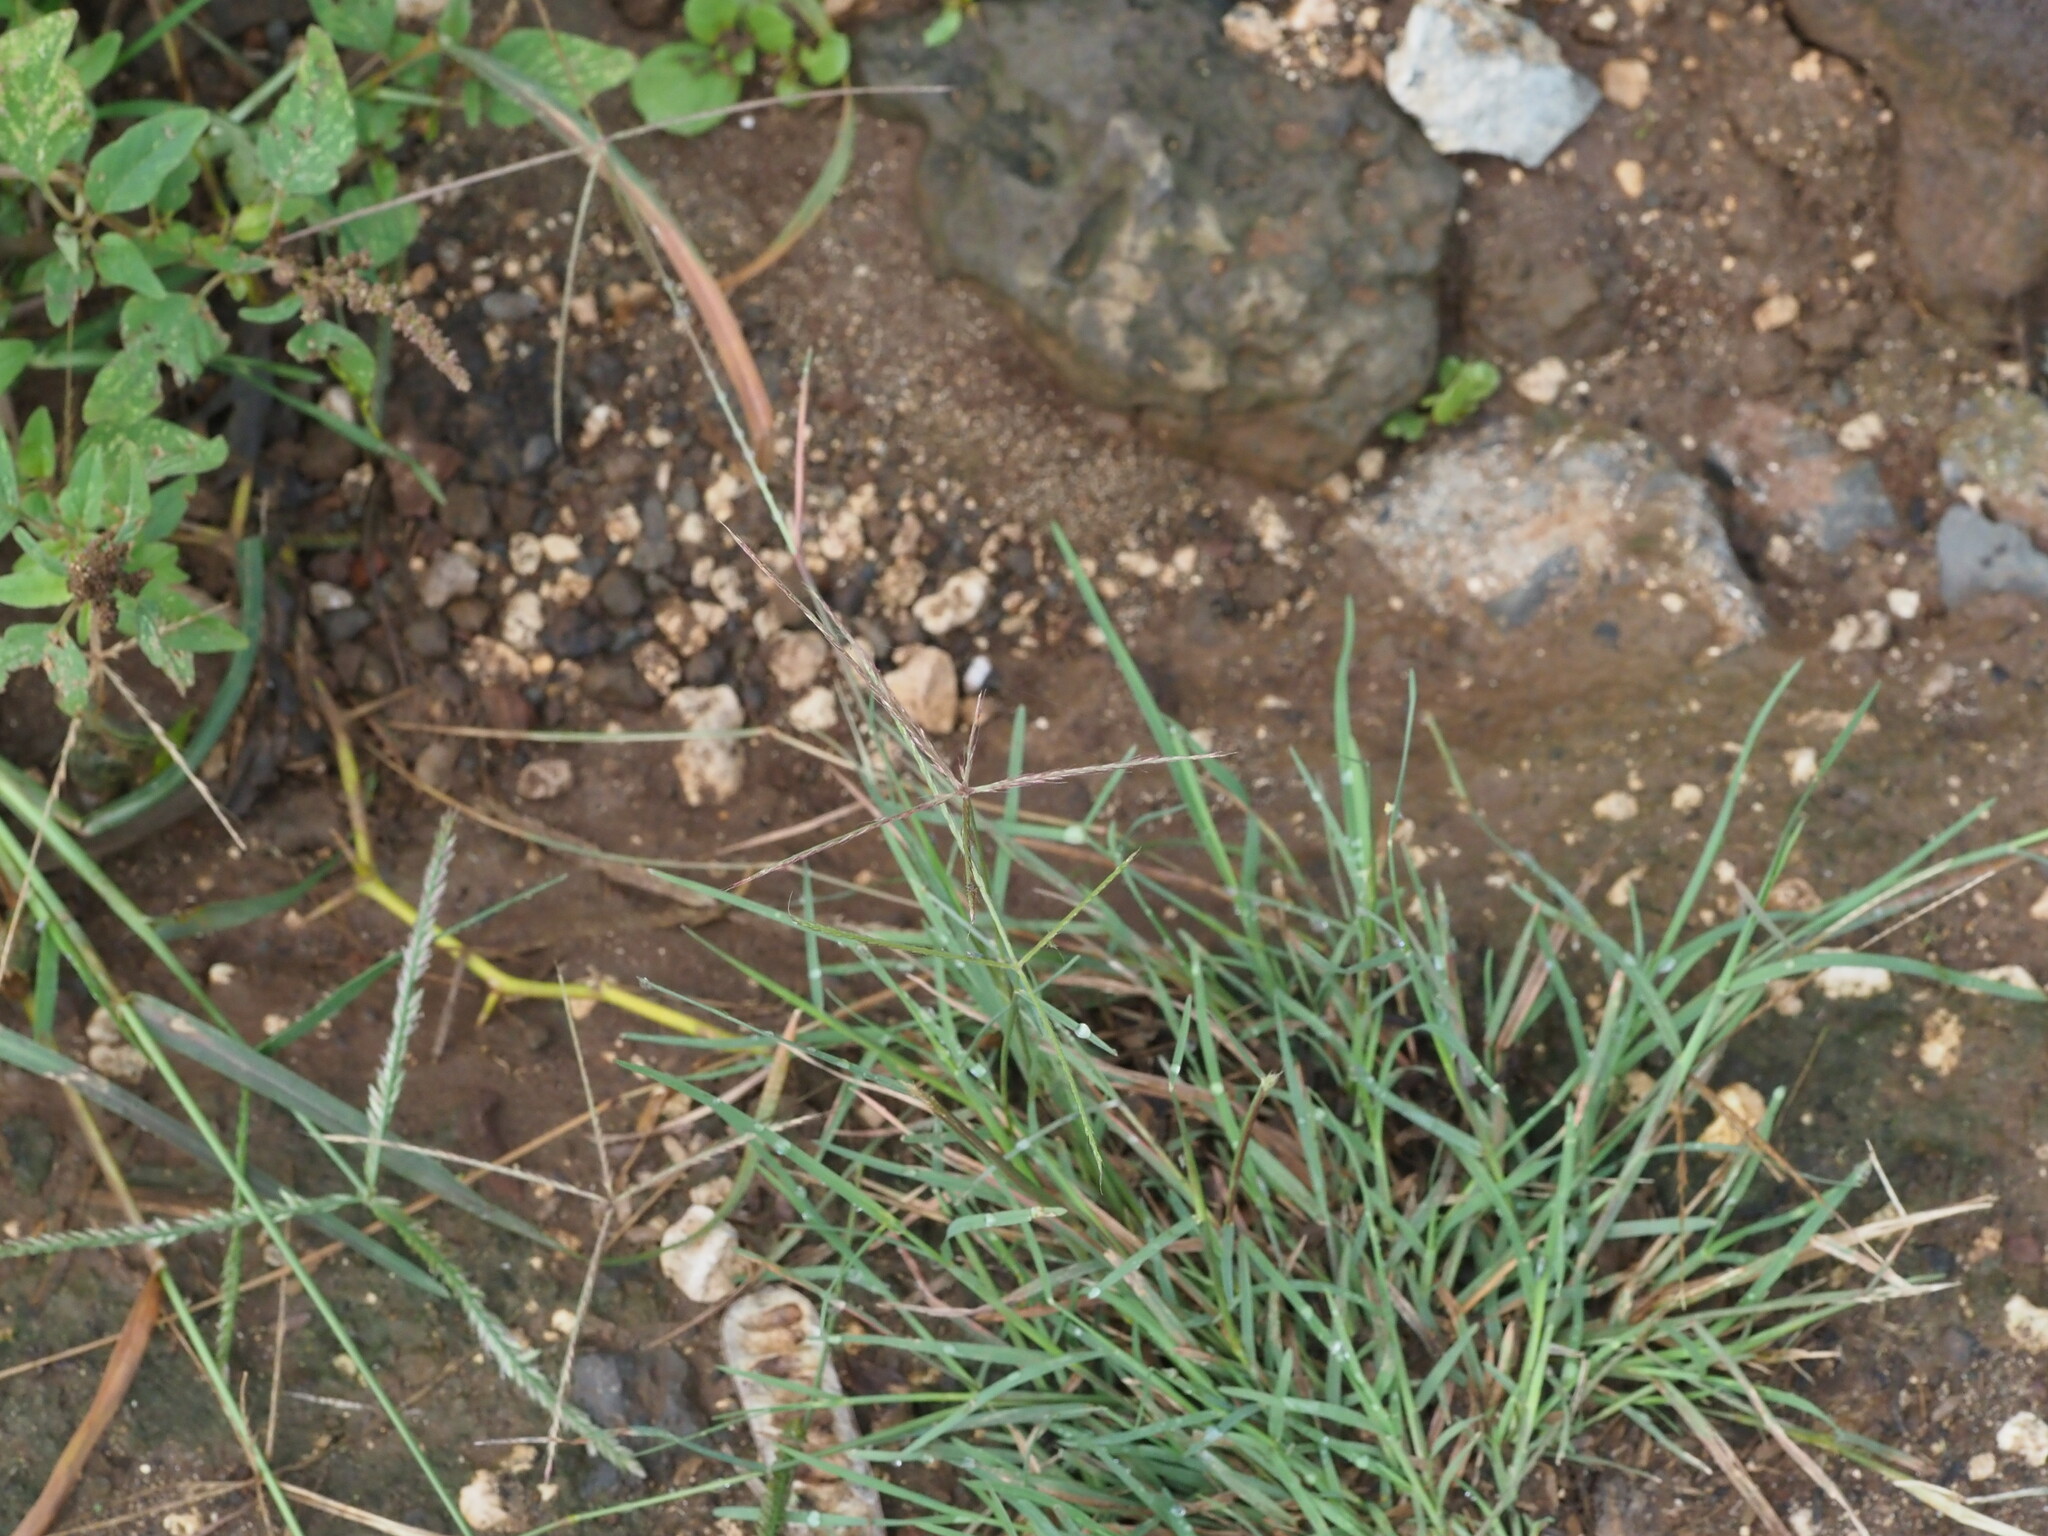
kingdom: Plantae
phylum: Tracheophyta
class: Liliopsida
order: Poales
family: Poaceae
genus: Chloris
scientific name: Chloris divaricata
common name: Spreading windmill grass
